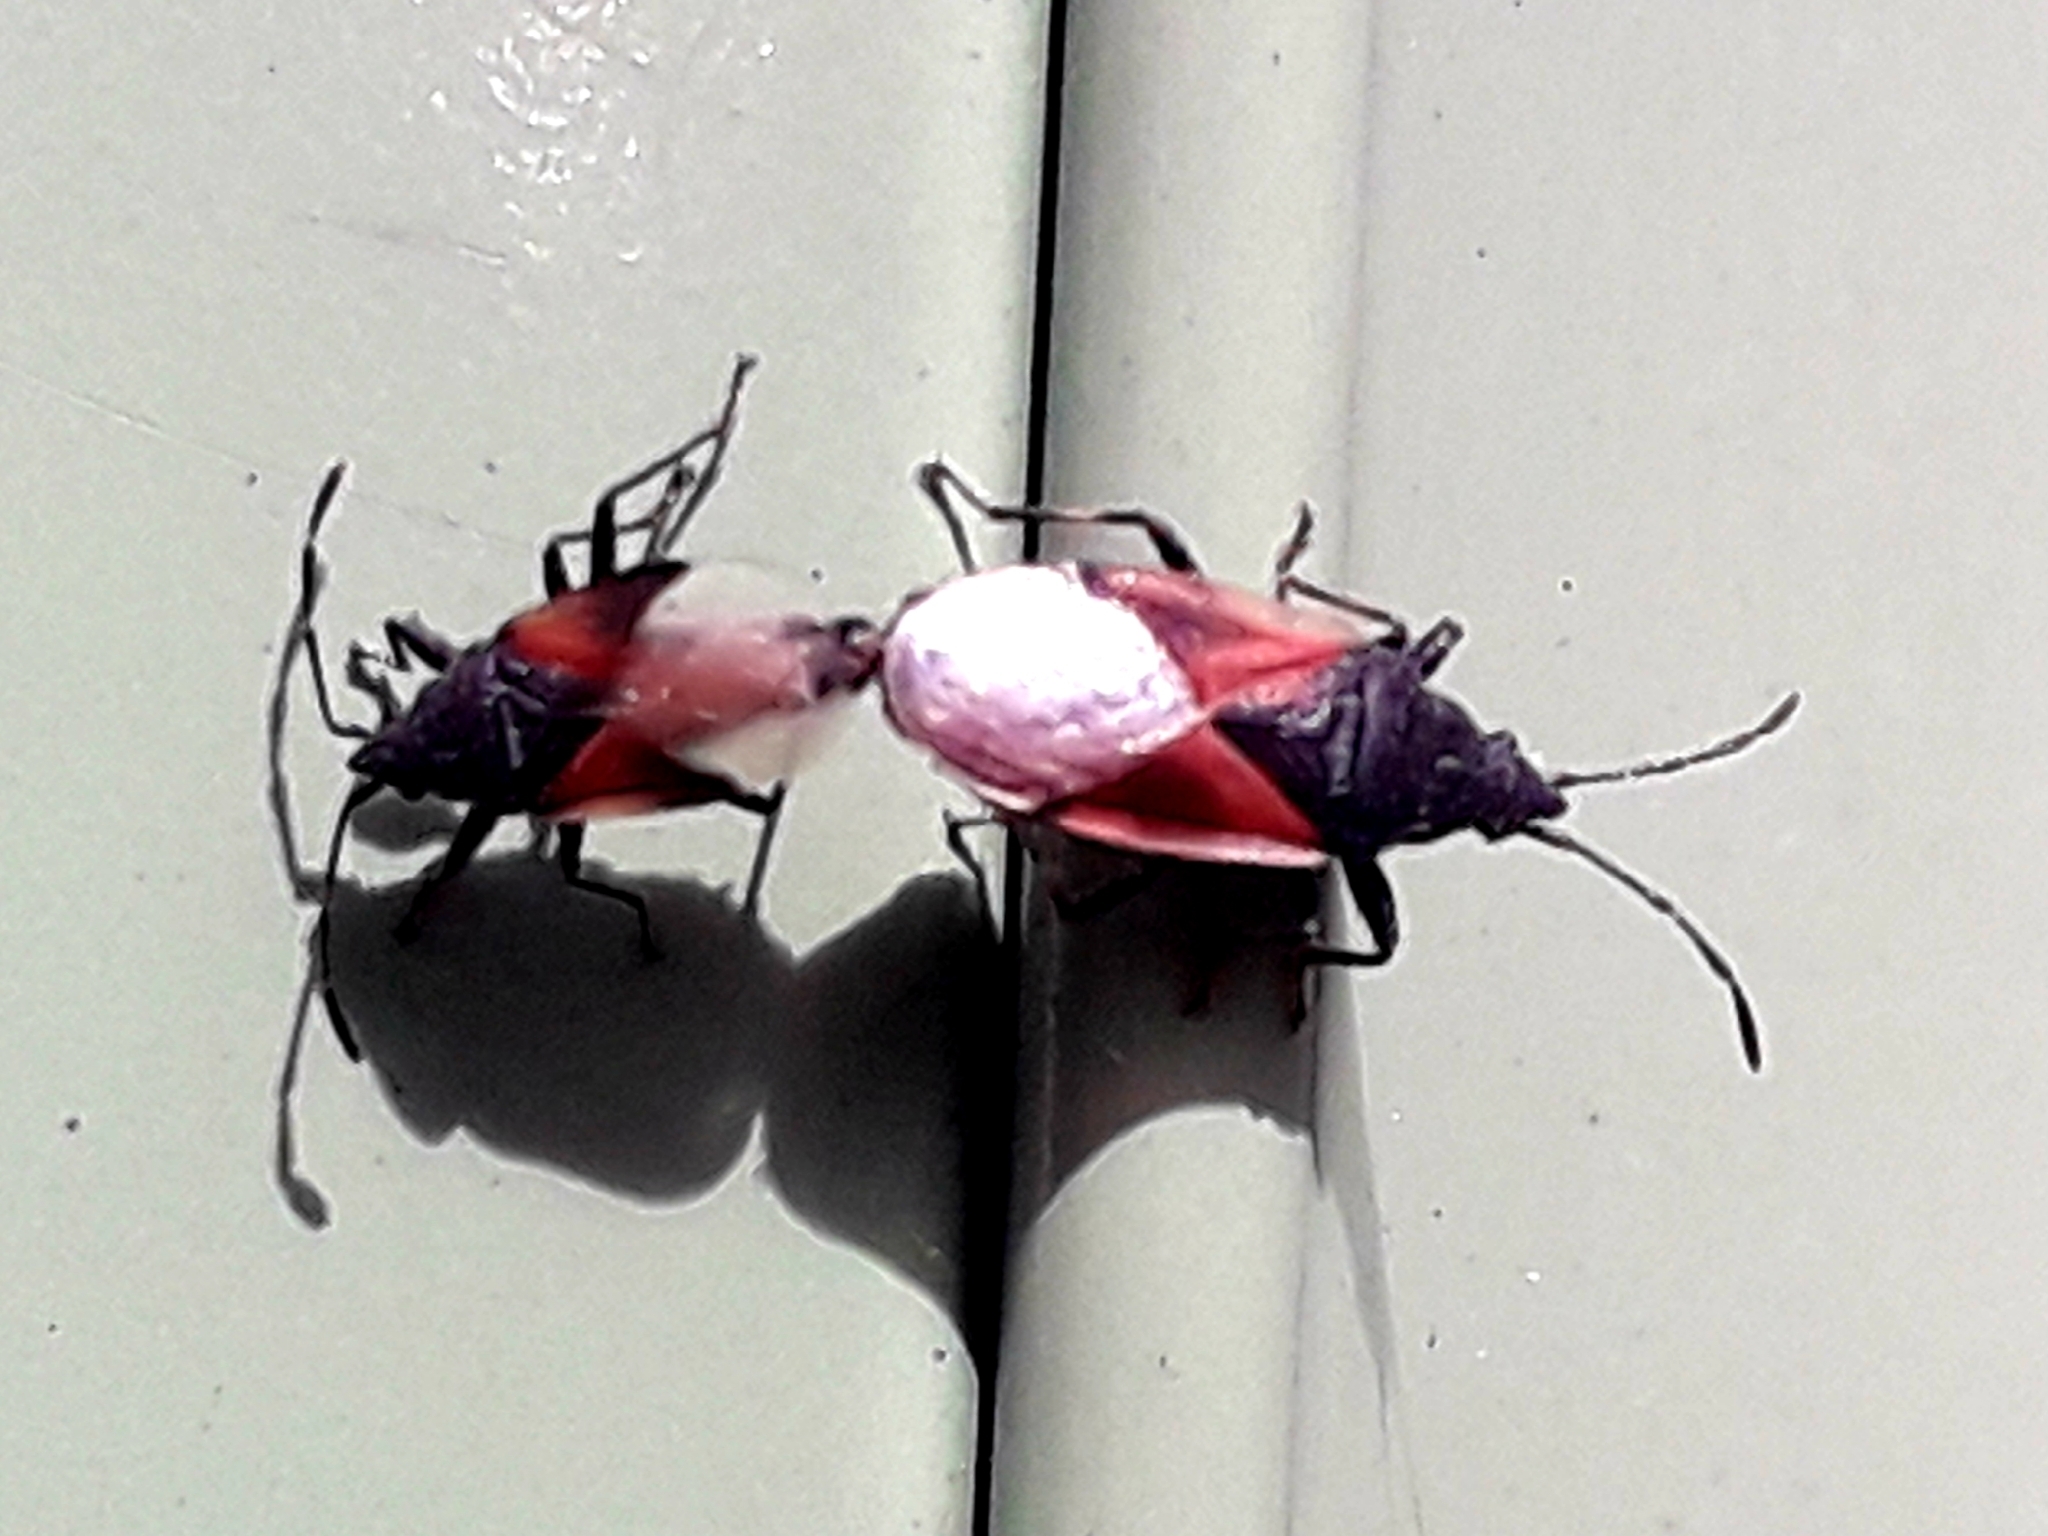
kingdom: Animalia
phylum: Arthropoda
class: Insecta
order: Hemiptera
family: Oxycarenidae
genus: Oxycarenus
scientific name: Oxycarenus lavaterae
